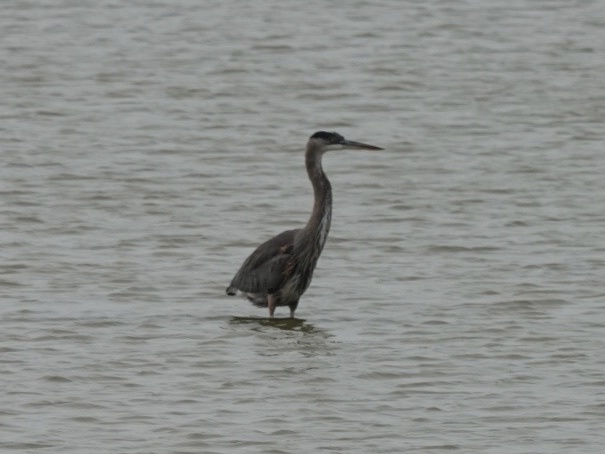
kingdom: Animalia
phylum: Chordata
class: Aves
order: Pelecaniformes
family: Ardeidae
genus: Ardea
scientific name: Ardea herodias
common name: Great blue heron
